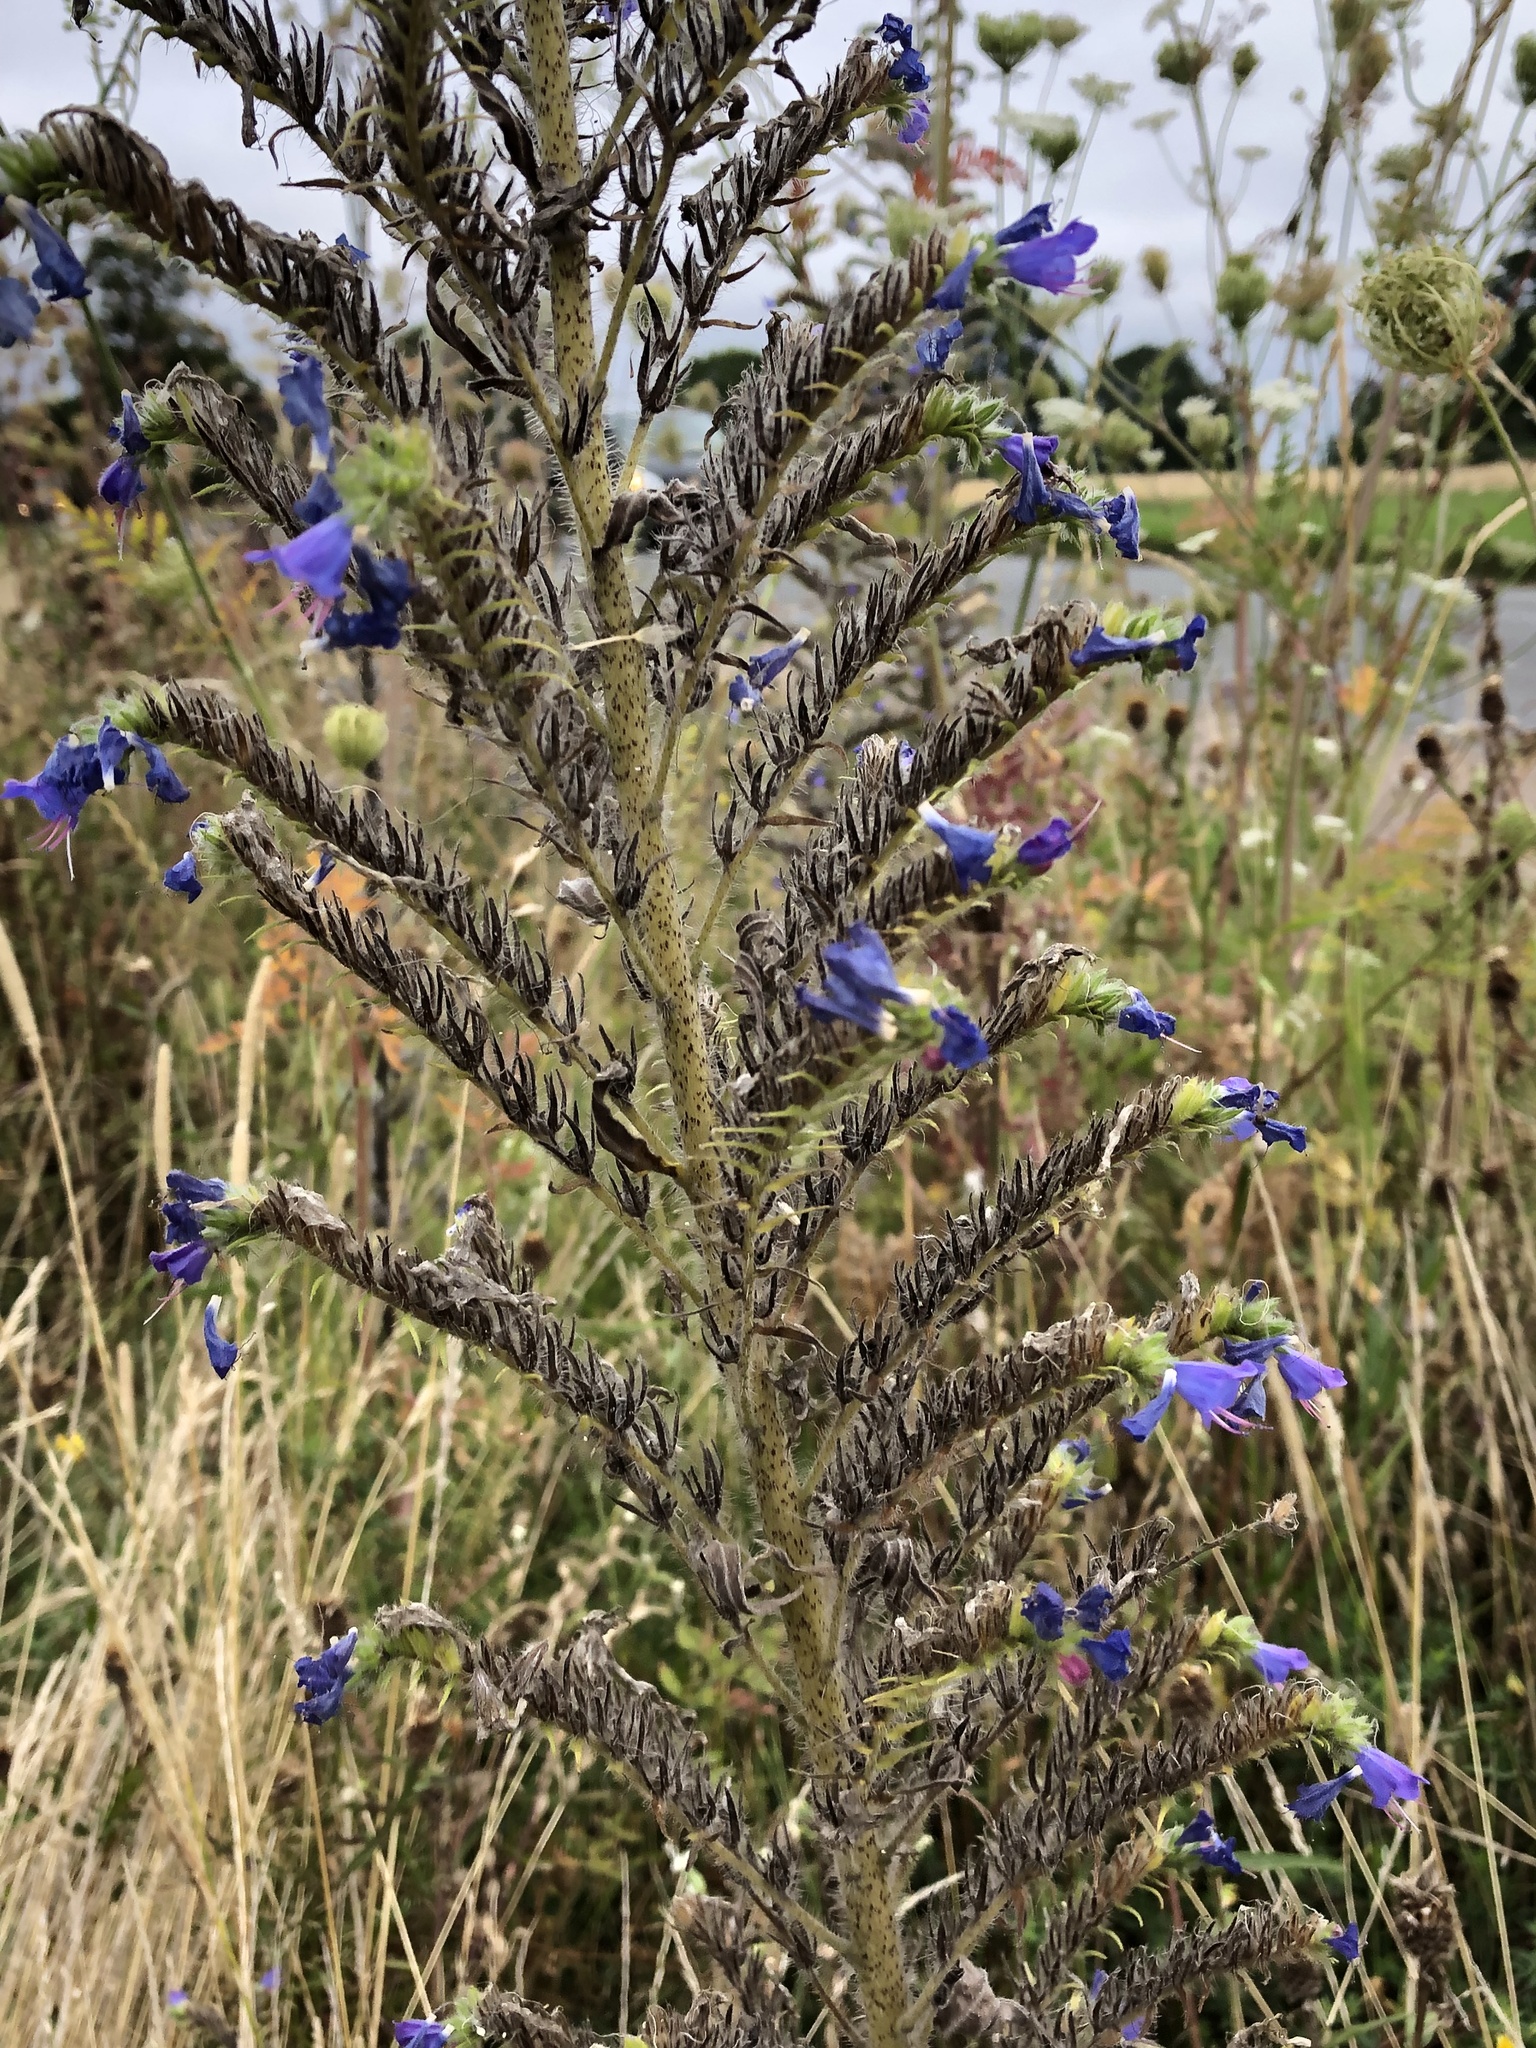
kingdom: Plantae
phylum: Tracheophyta
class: Magnoliopsida
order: Boraginales
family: Boraginaceae
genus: Echium
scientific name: Echium vulgare
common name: Common viper's bugloss
